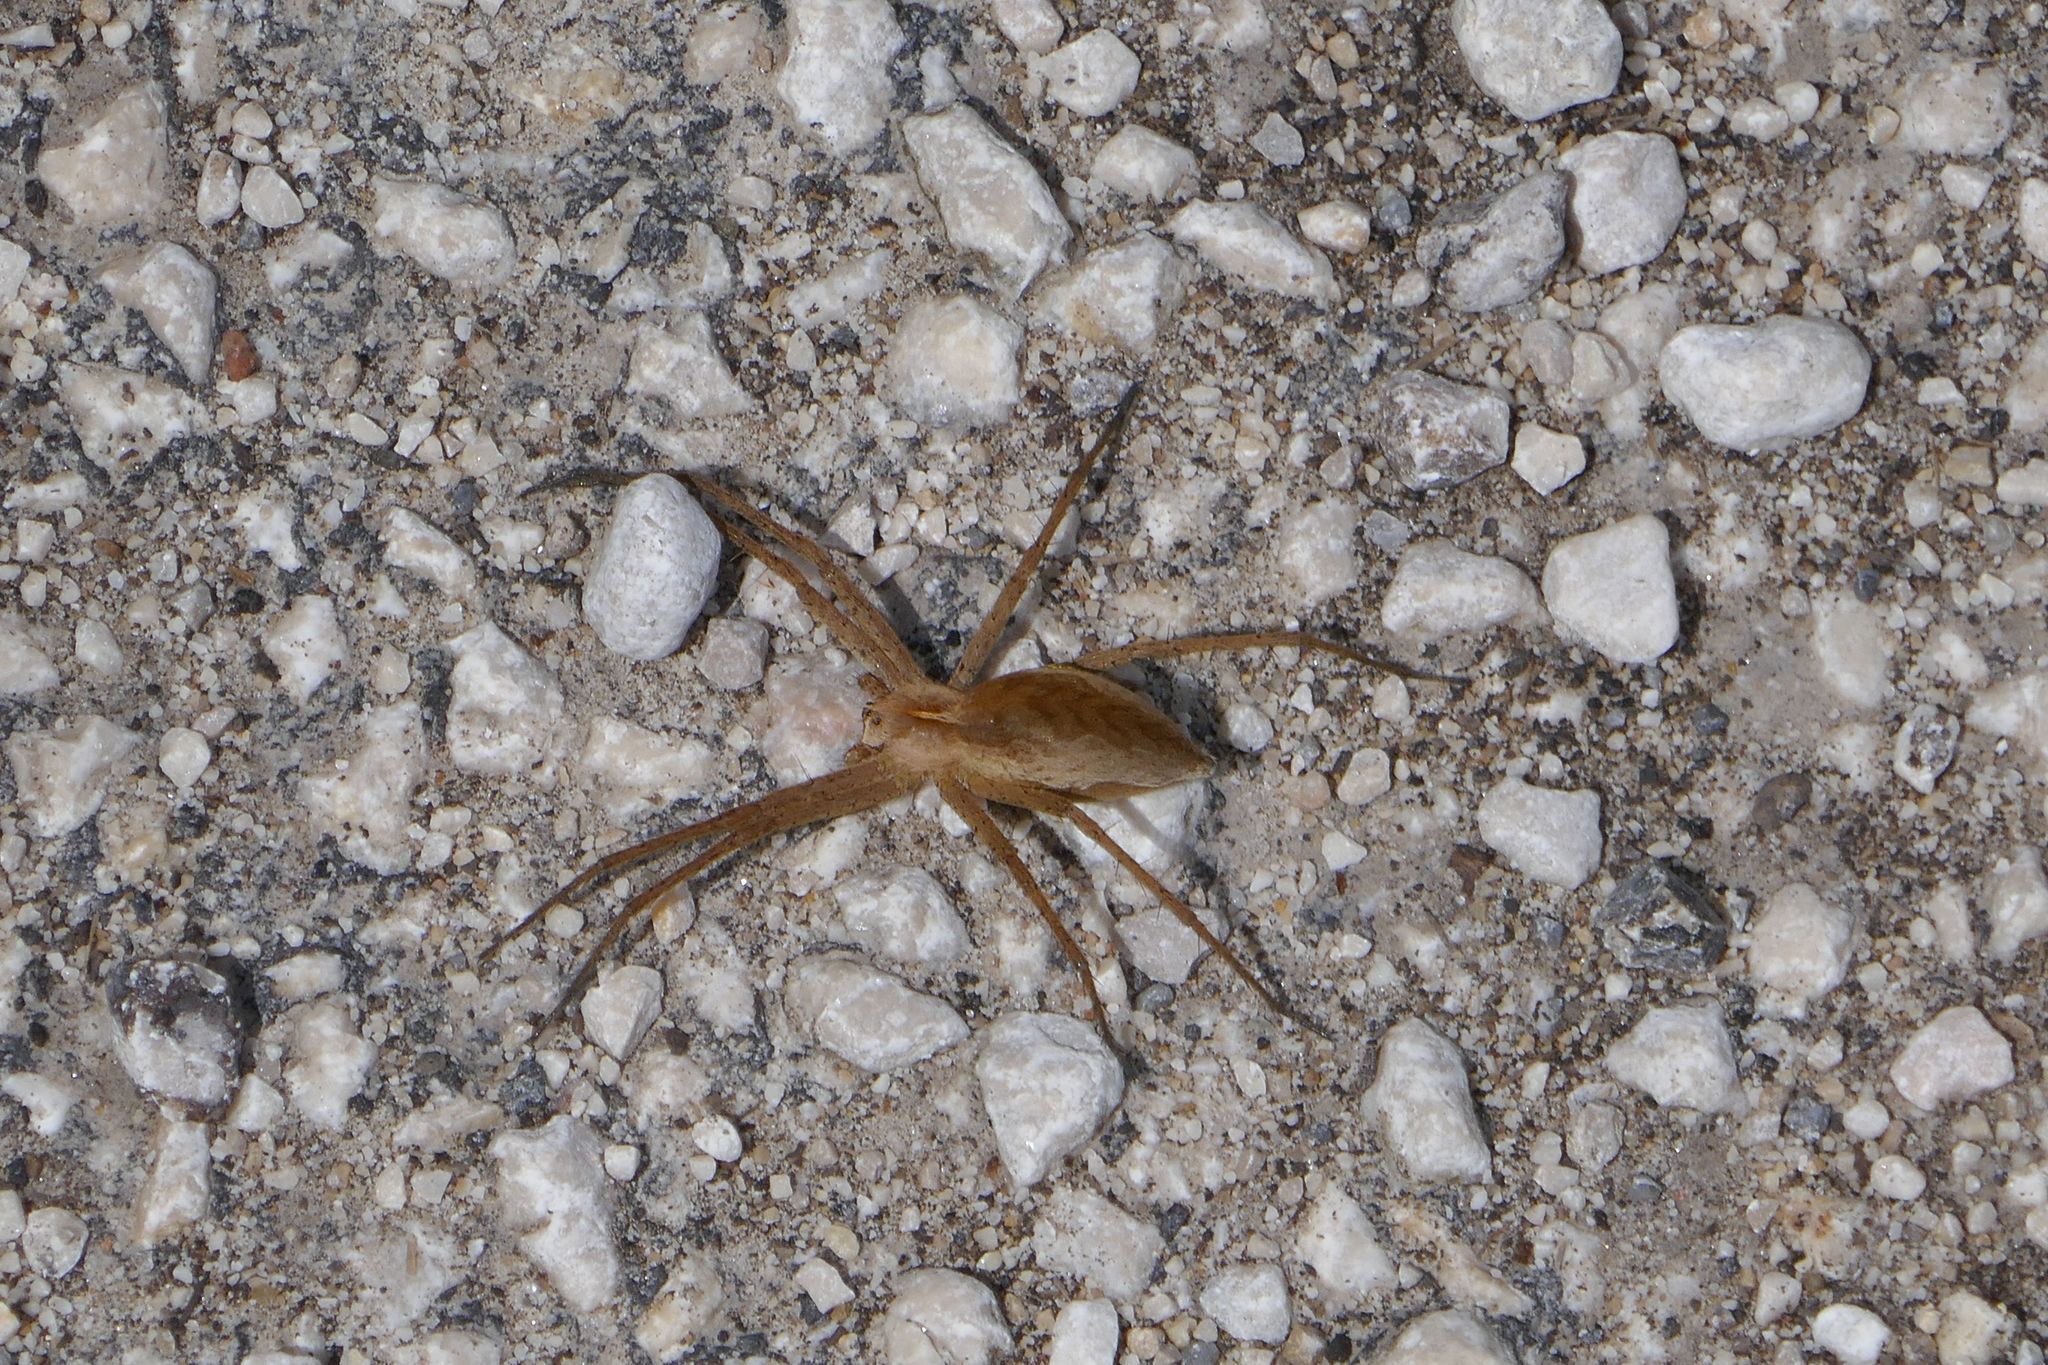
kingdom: Animalia
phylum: Arthropoda
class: Arachnida
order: Araneae
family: Pisauridae
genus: Pisaura
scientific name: Pisaura
